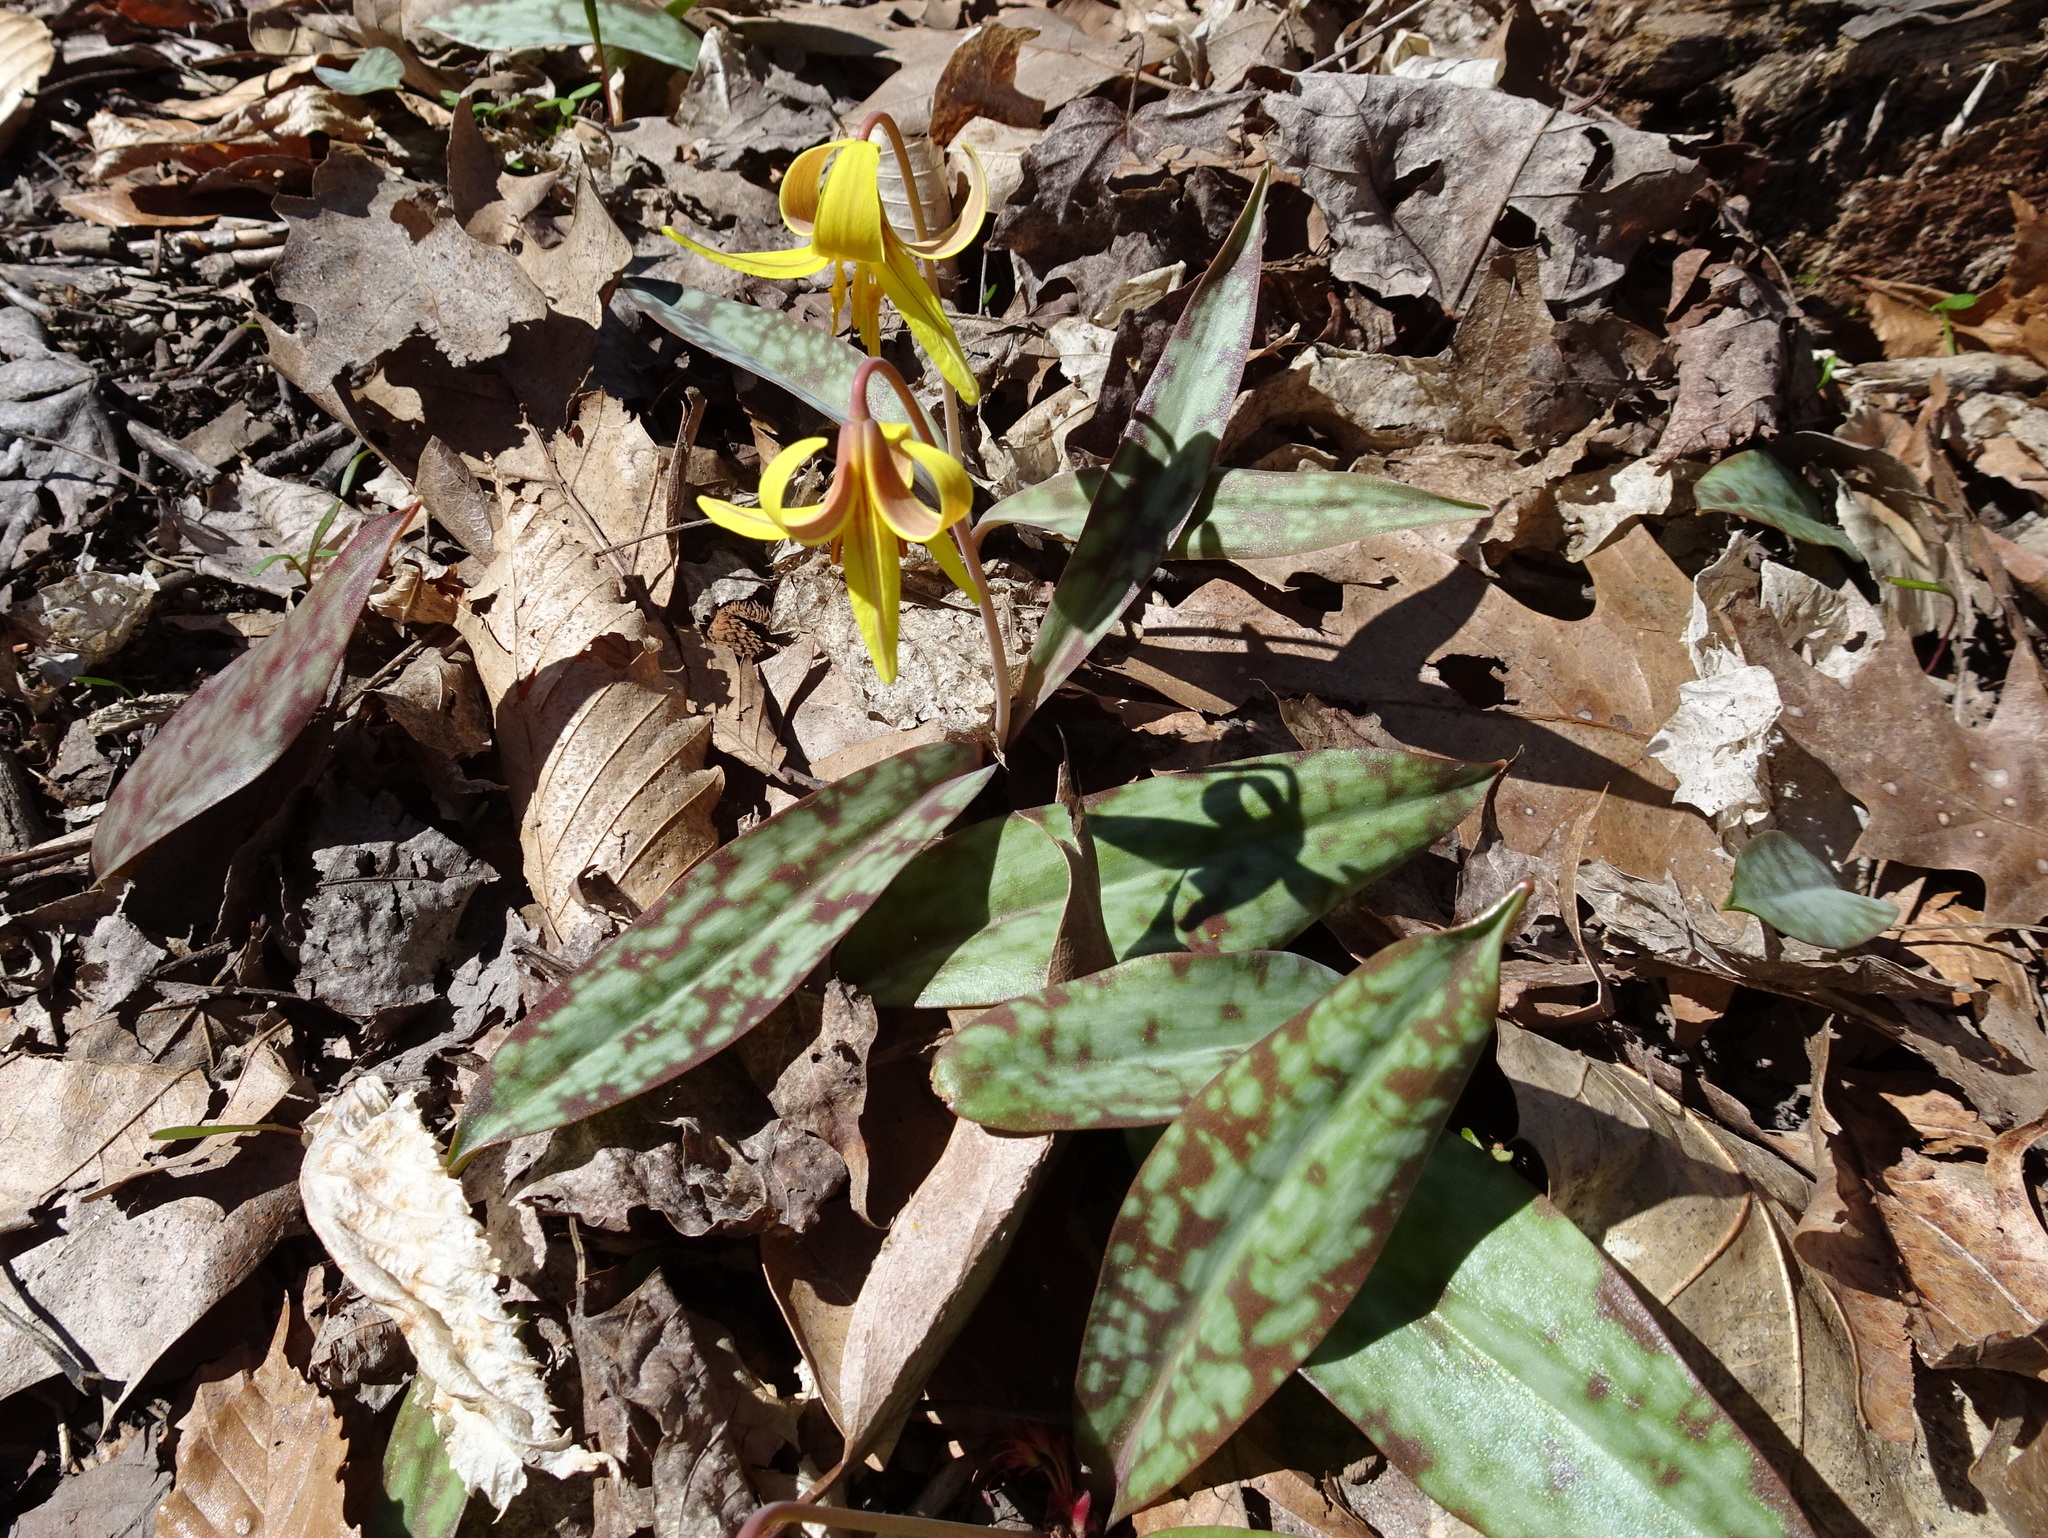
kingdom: Plantae
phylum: Tracheophyta
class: Liliopsida
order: Liliales
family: Liliaceae
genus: Erythronium
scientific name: Erythronium americanum
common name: Yellow adder's-tongue
